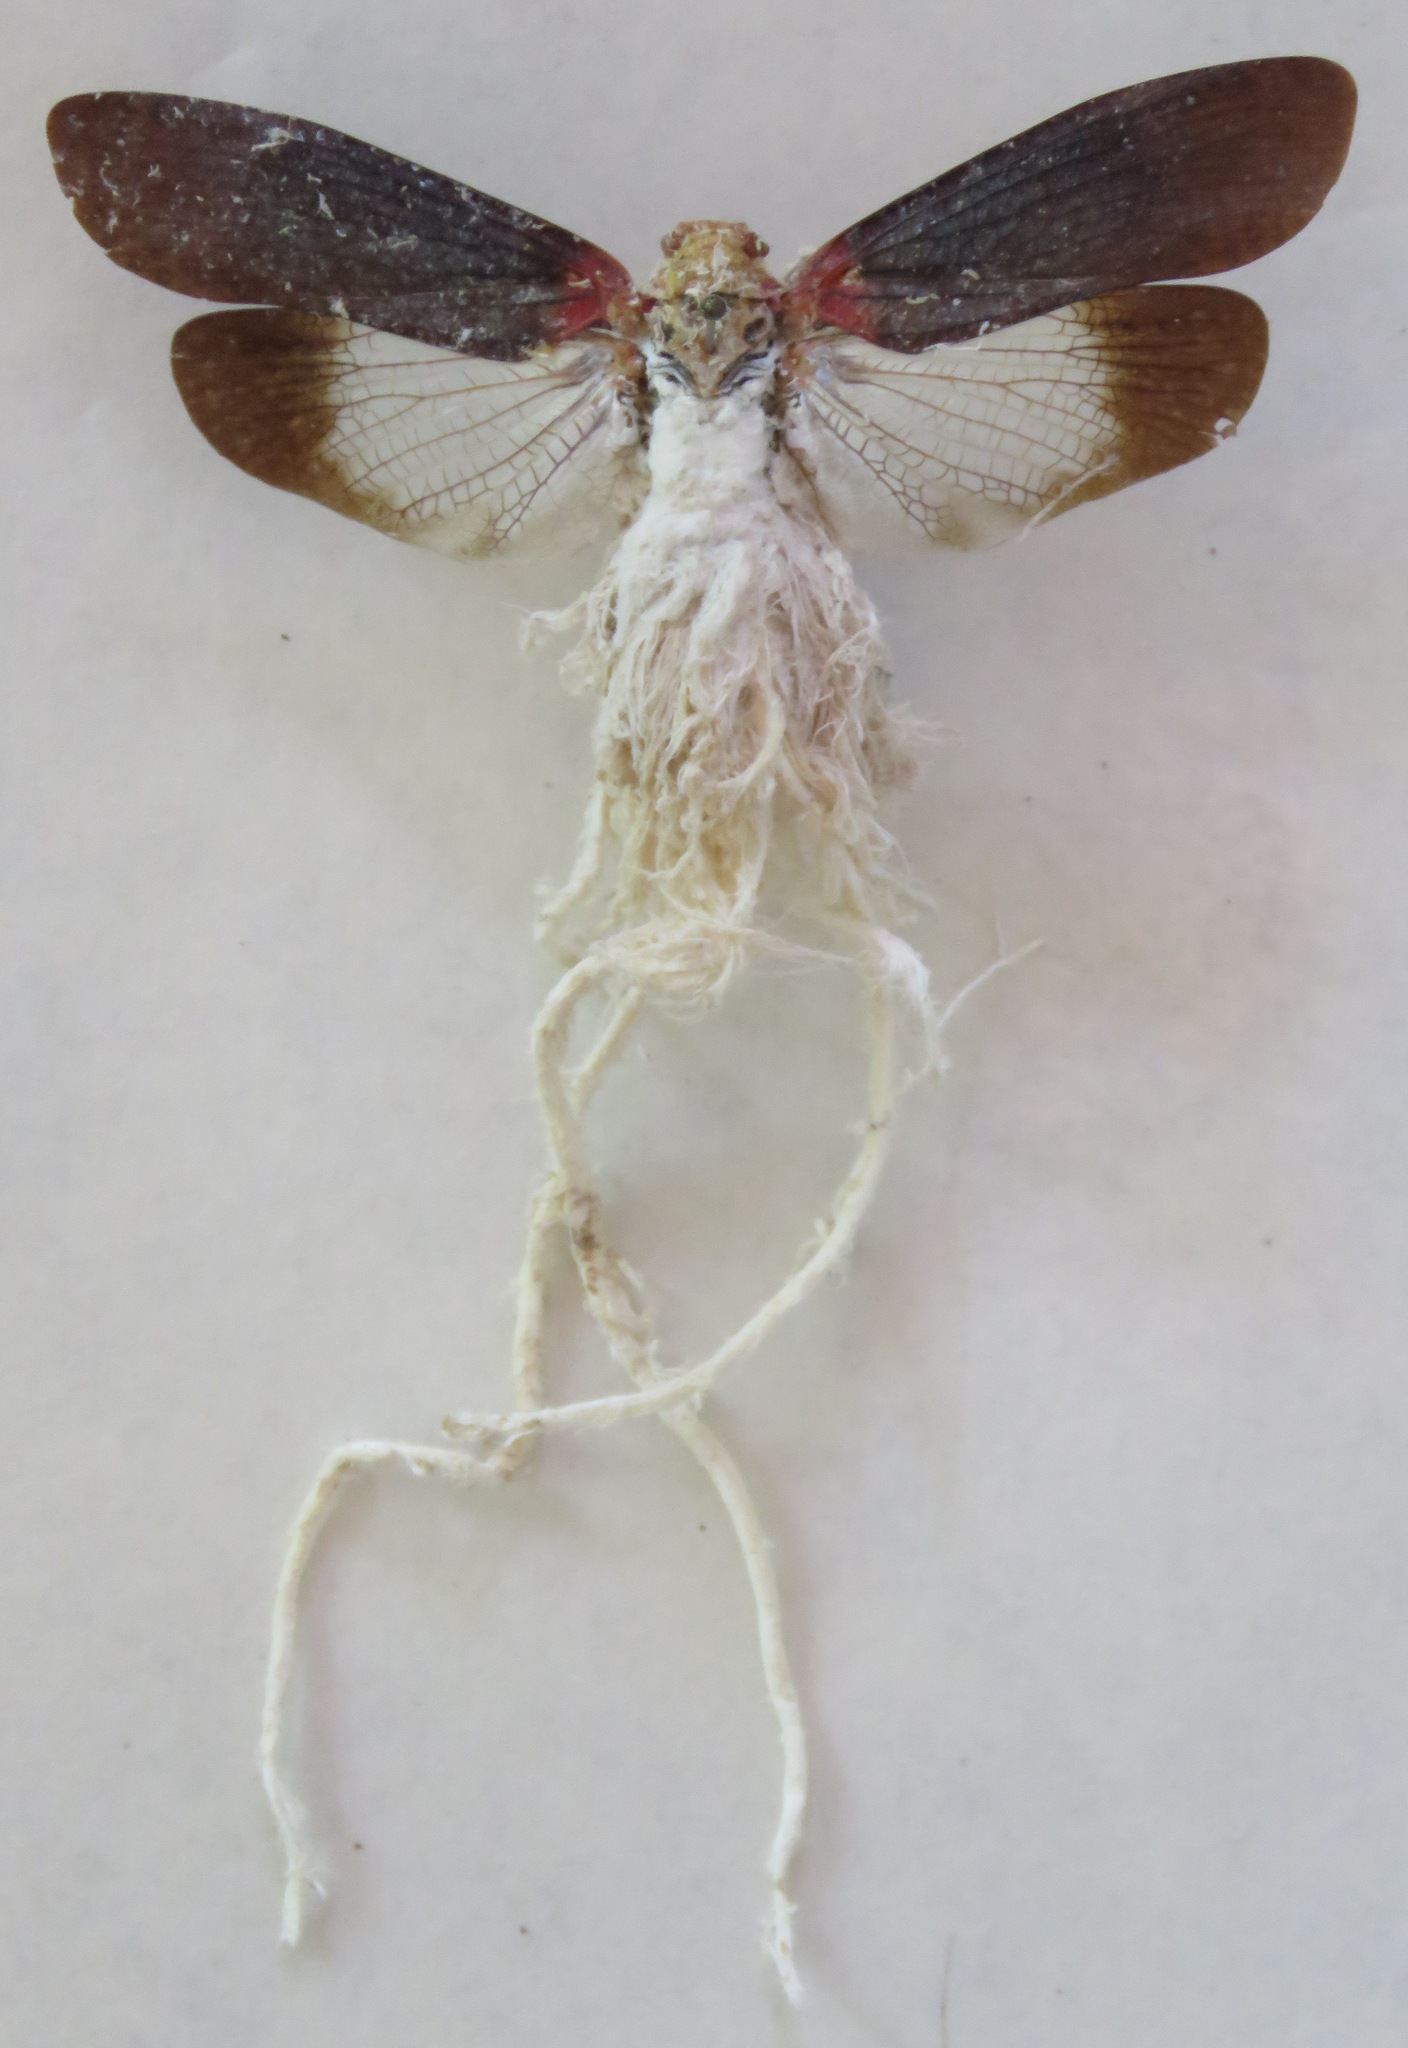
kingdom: Animalia
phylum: Arthropoda
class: Insecta
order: Hemiptera
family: Fulgoridae
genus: Cerogenes
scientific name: Cerogenes auricoma
